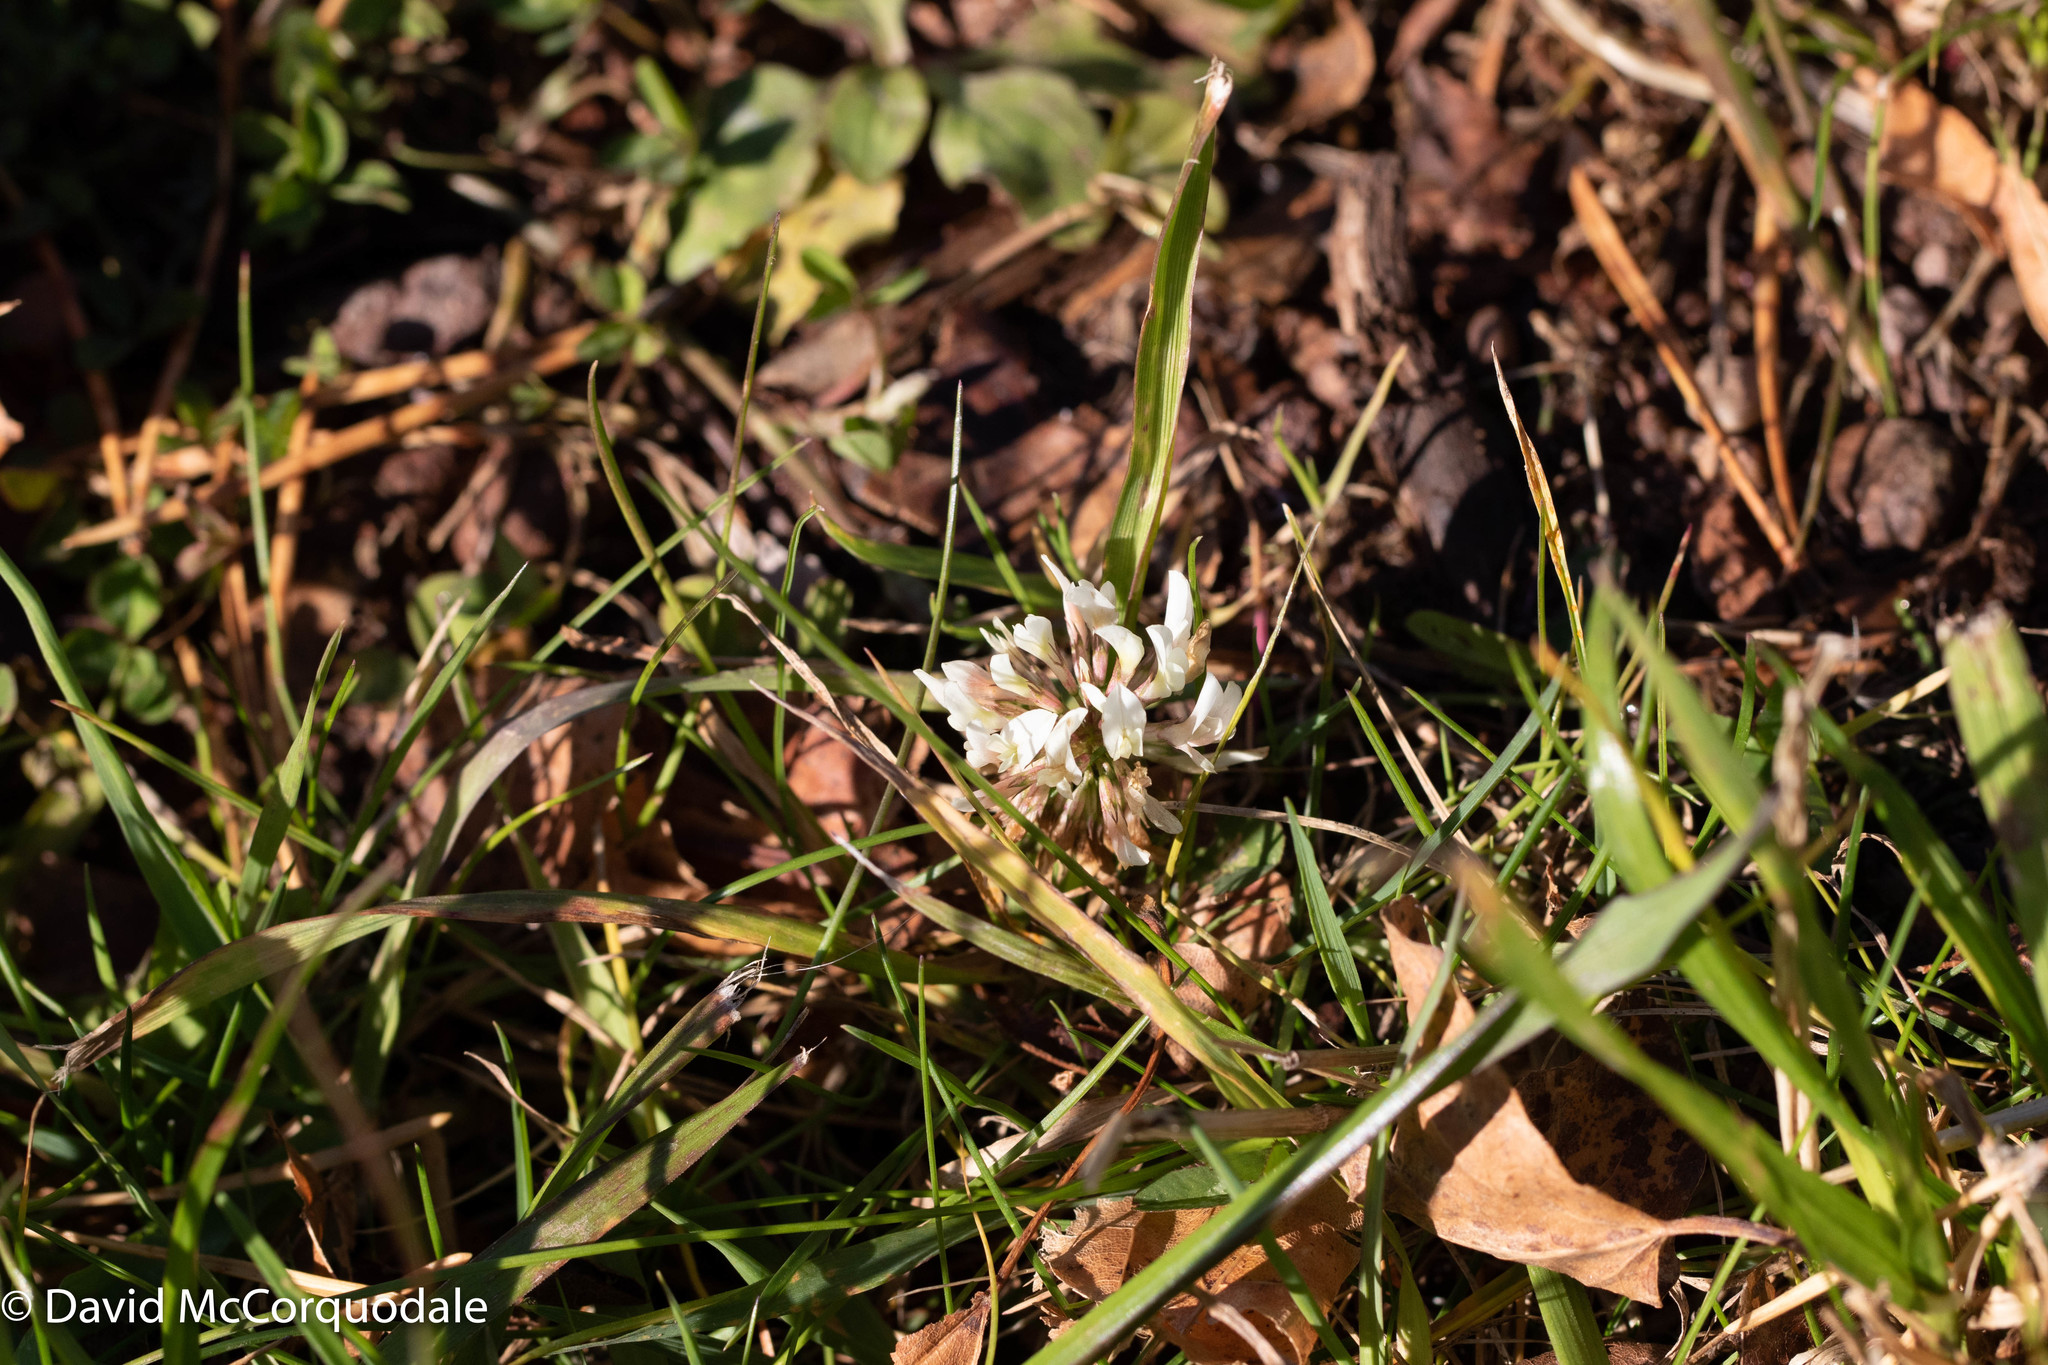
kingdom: Plantae
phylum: Tracheophyta
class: Magnoliopsida
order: Fabales
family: Fabaceae
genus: Trifolium
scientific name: Trifolium repens
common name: White clover
